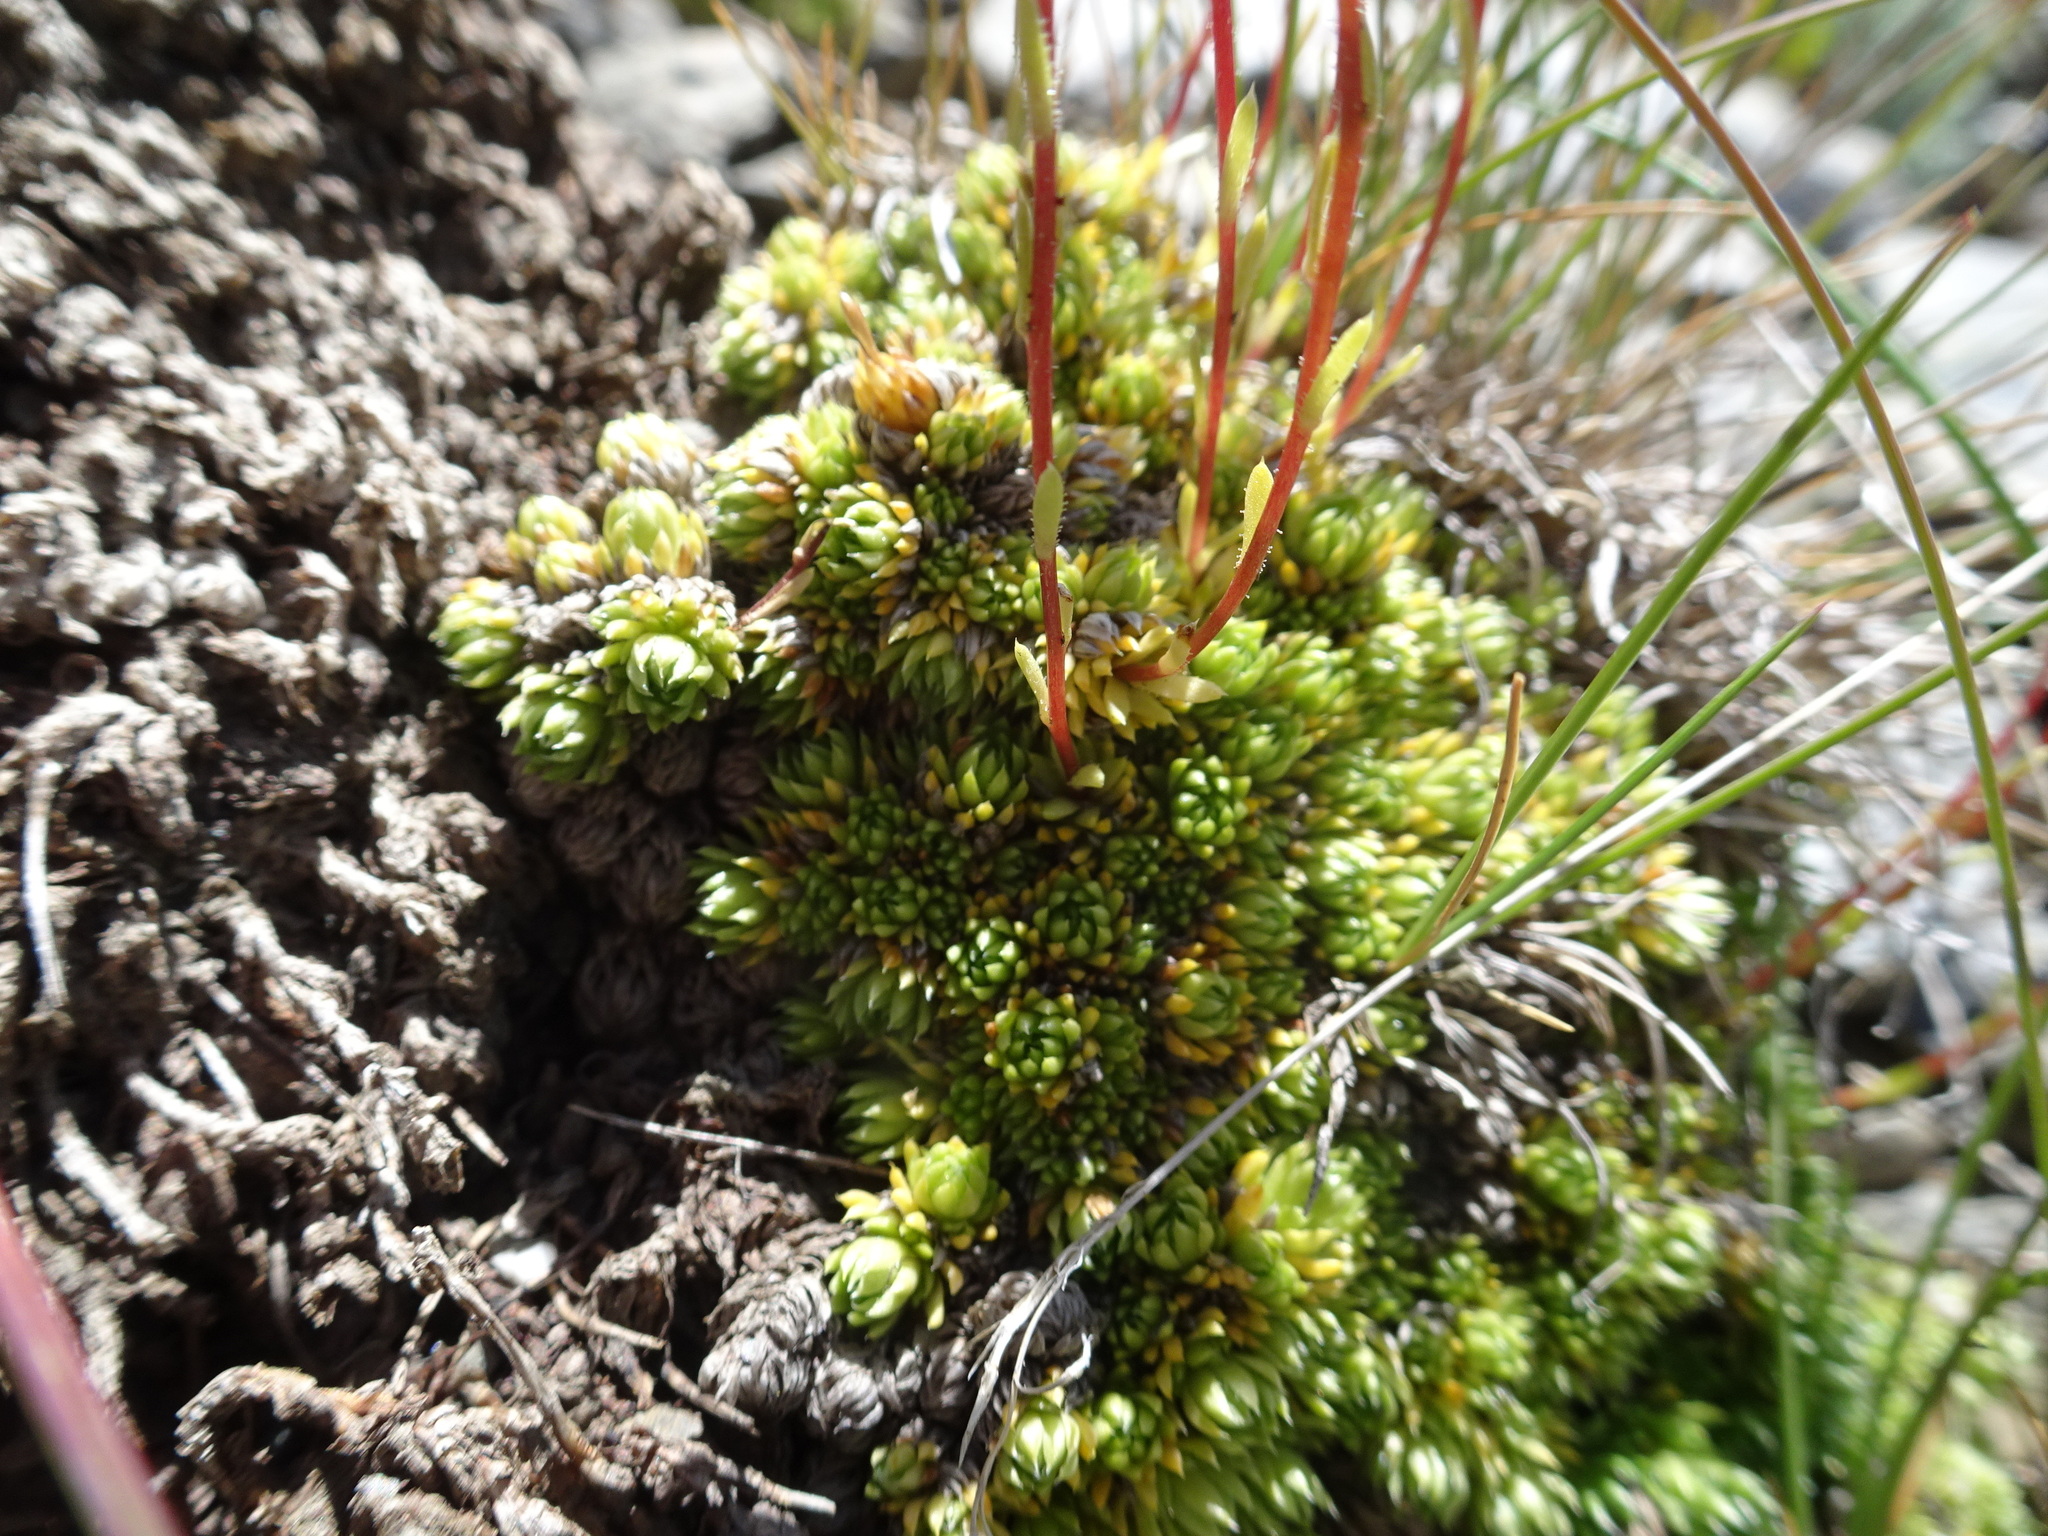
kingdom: Plantae
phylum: Tracheophyta
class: Magnoliopsida
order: Saxifragales
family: Saxifragaceae
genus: Saxifraga
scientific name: Saxifraga bryoides
